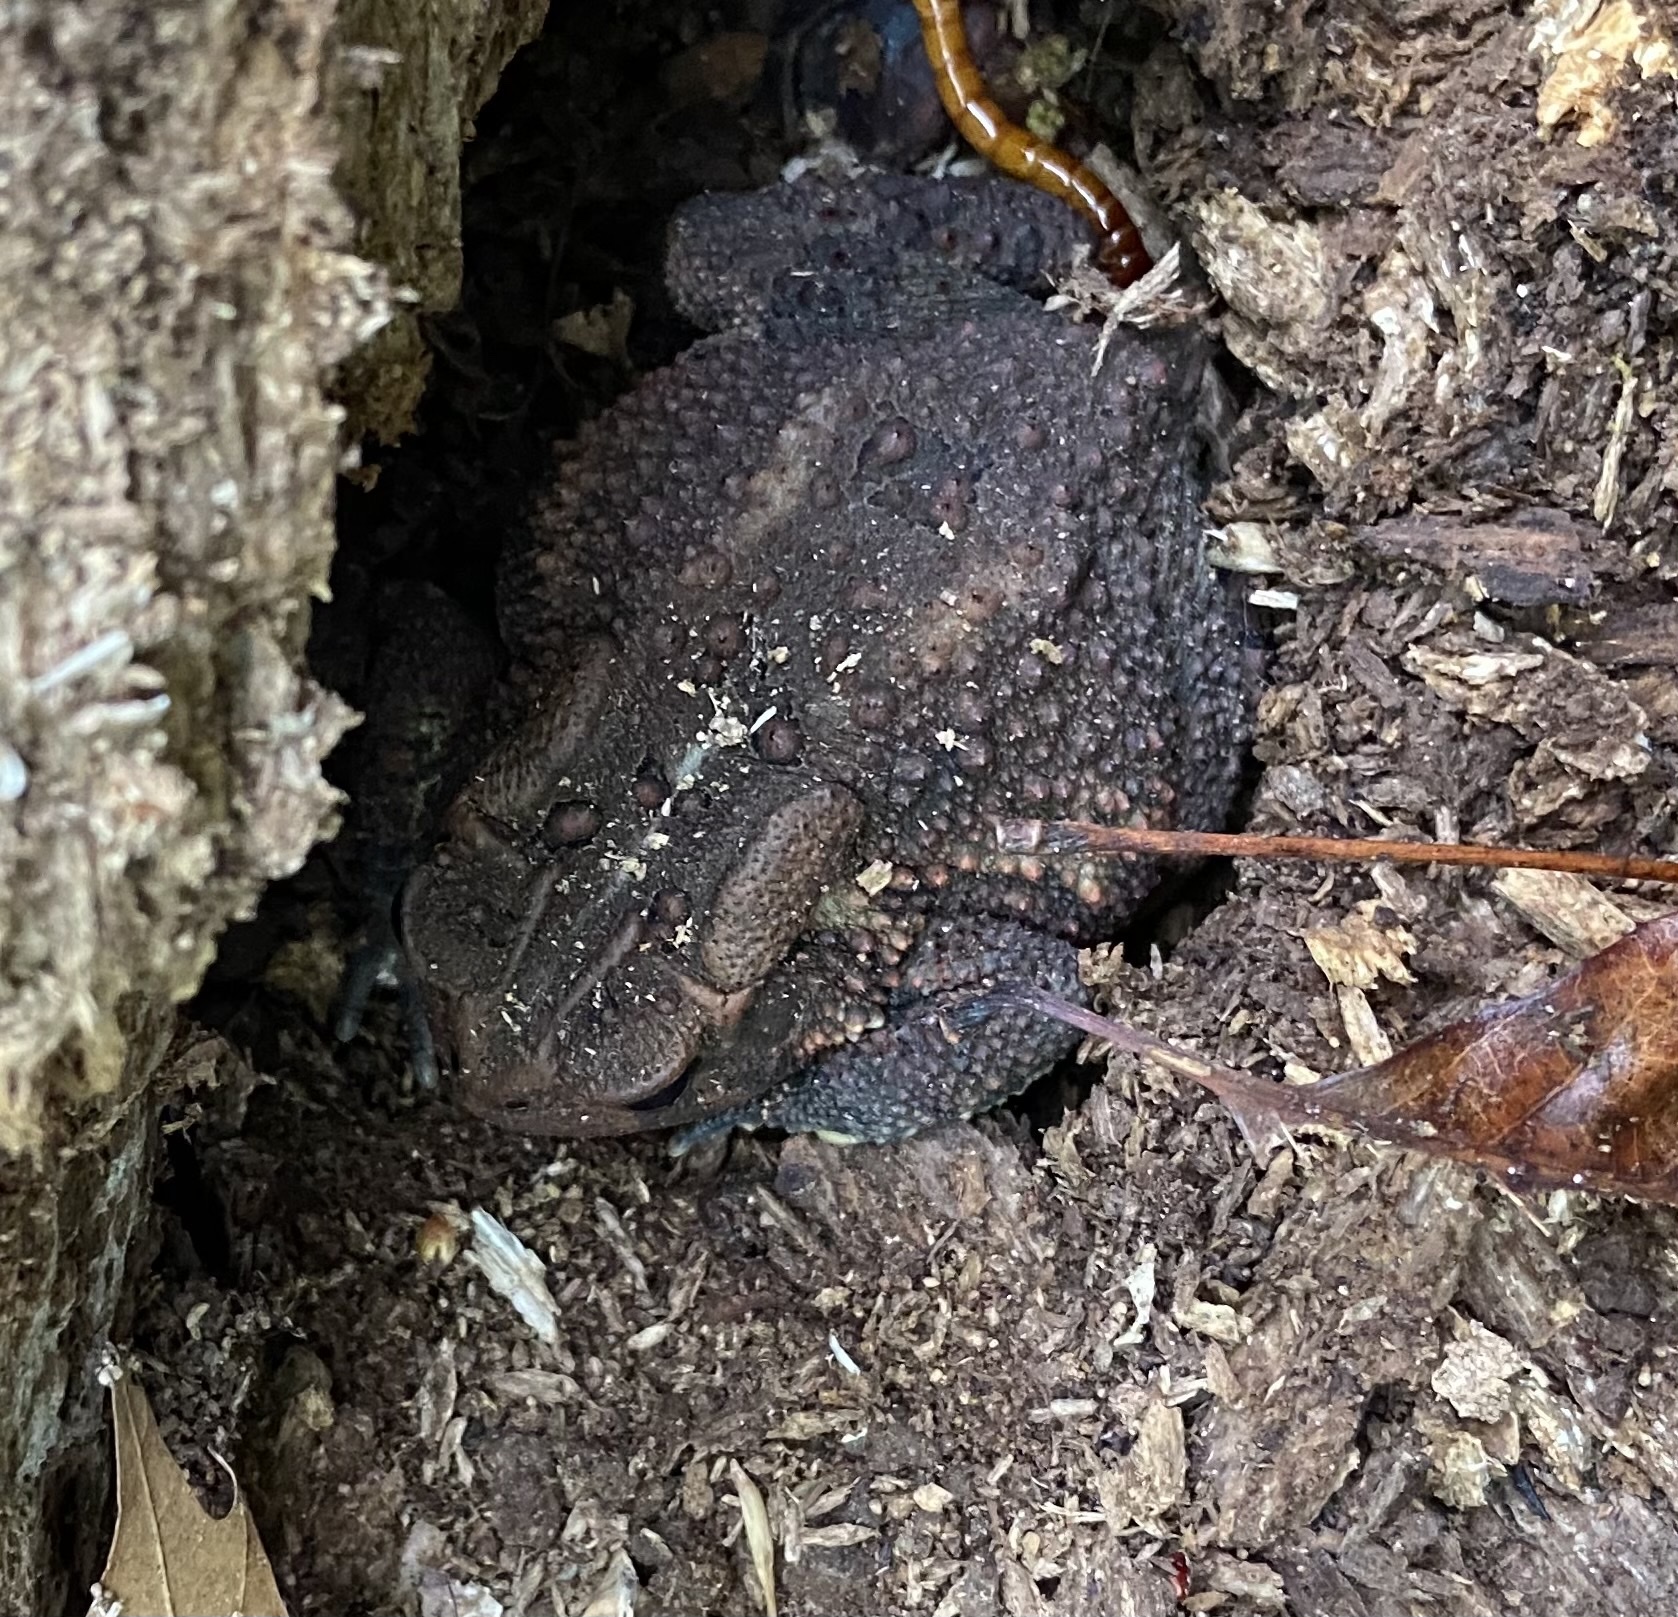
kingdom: Animalia
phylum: Chordata
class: Amphibia
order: Anura
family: Bufonidae
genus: Anaxyrus
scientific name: Anaxyrus americanus
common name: American toad
